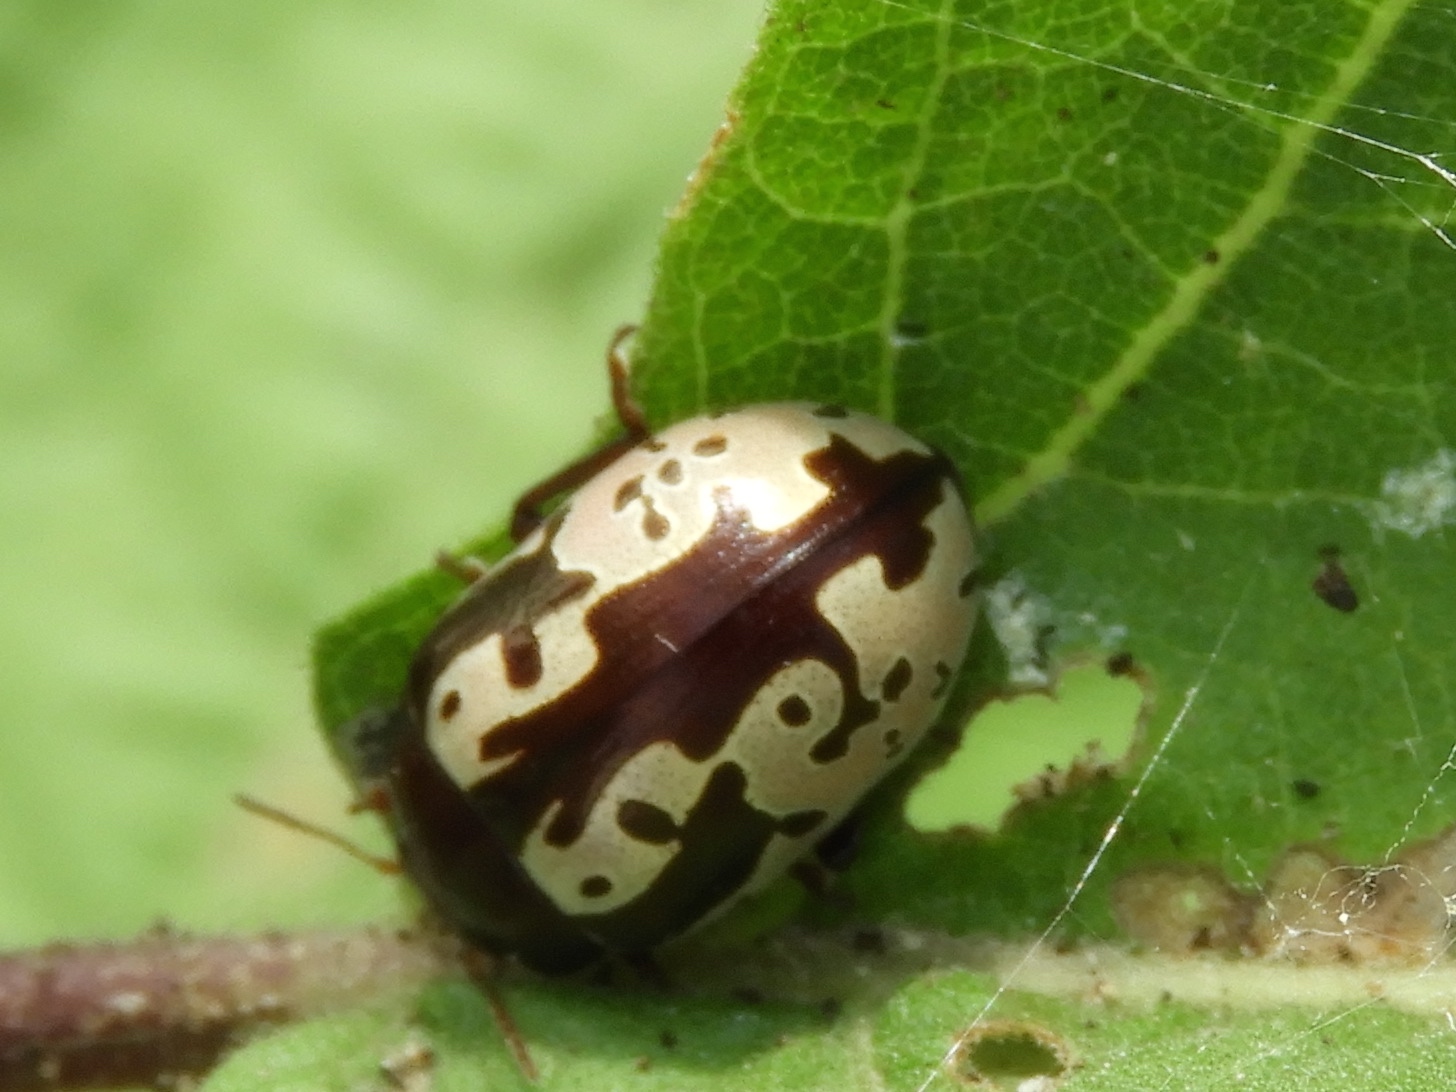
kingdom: Animalia
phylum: Arthropoda
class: Insecta
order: Coleoptera
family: Chrysomelidae
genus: Calligrapha
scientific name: Calligrapha intermedia
